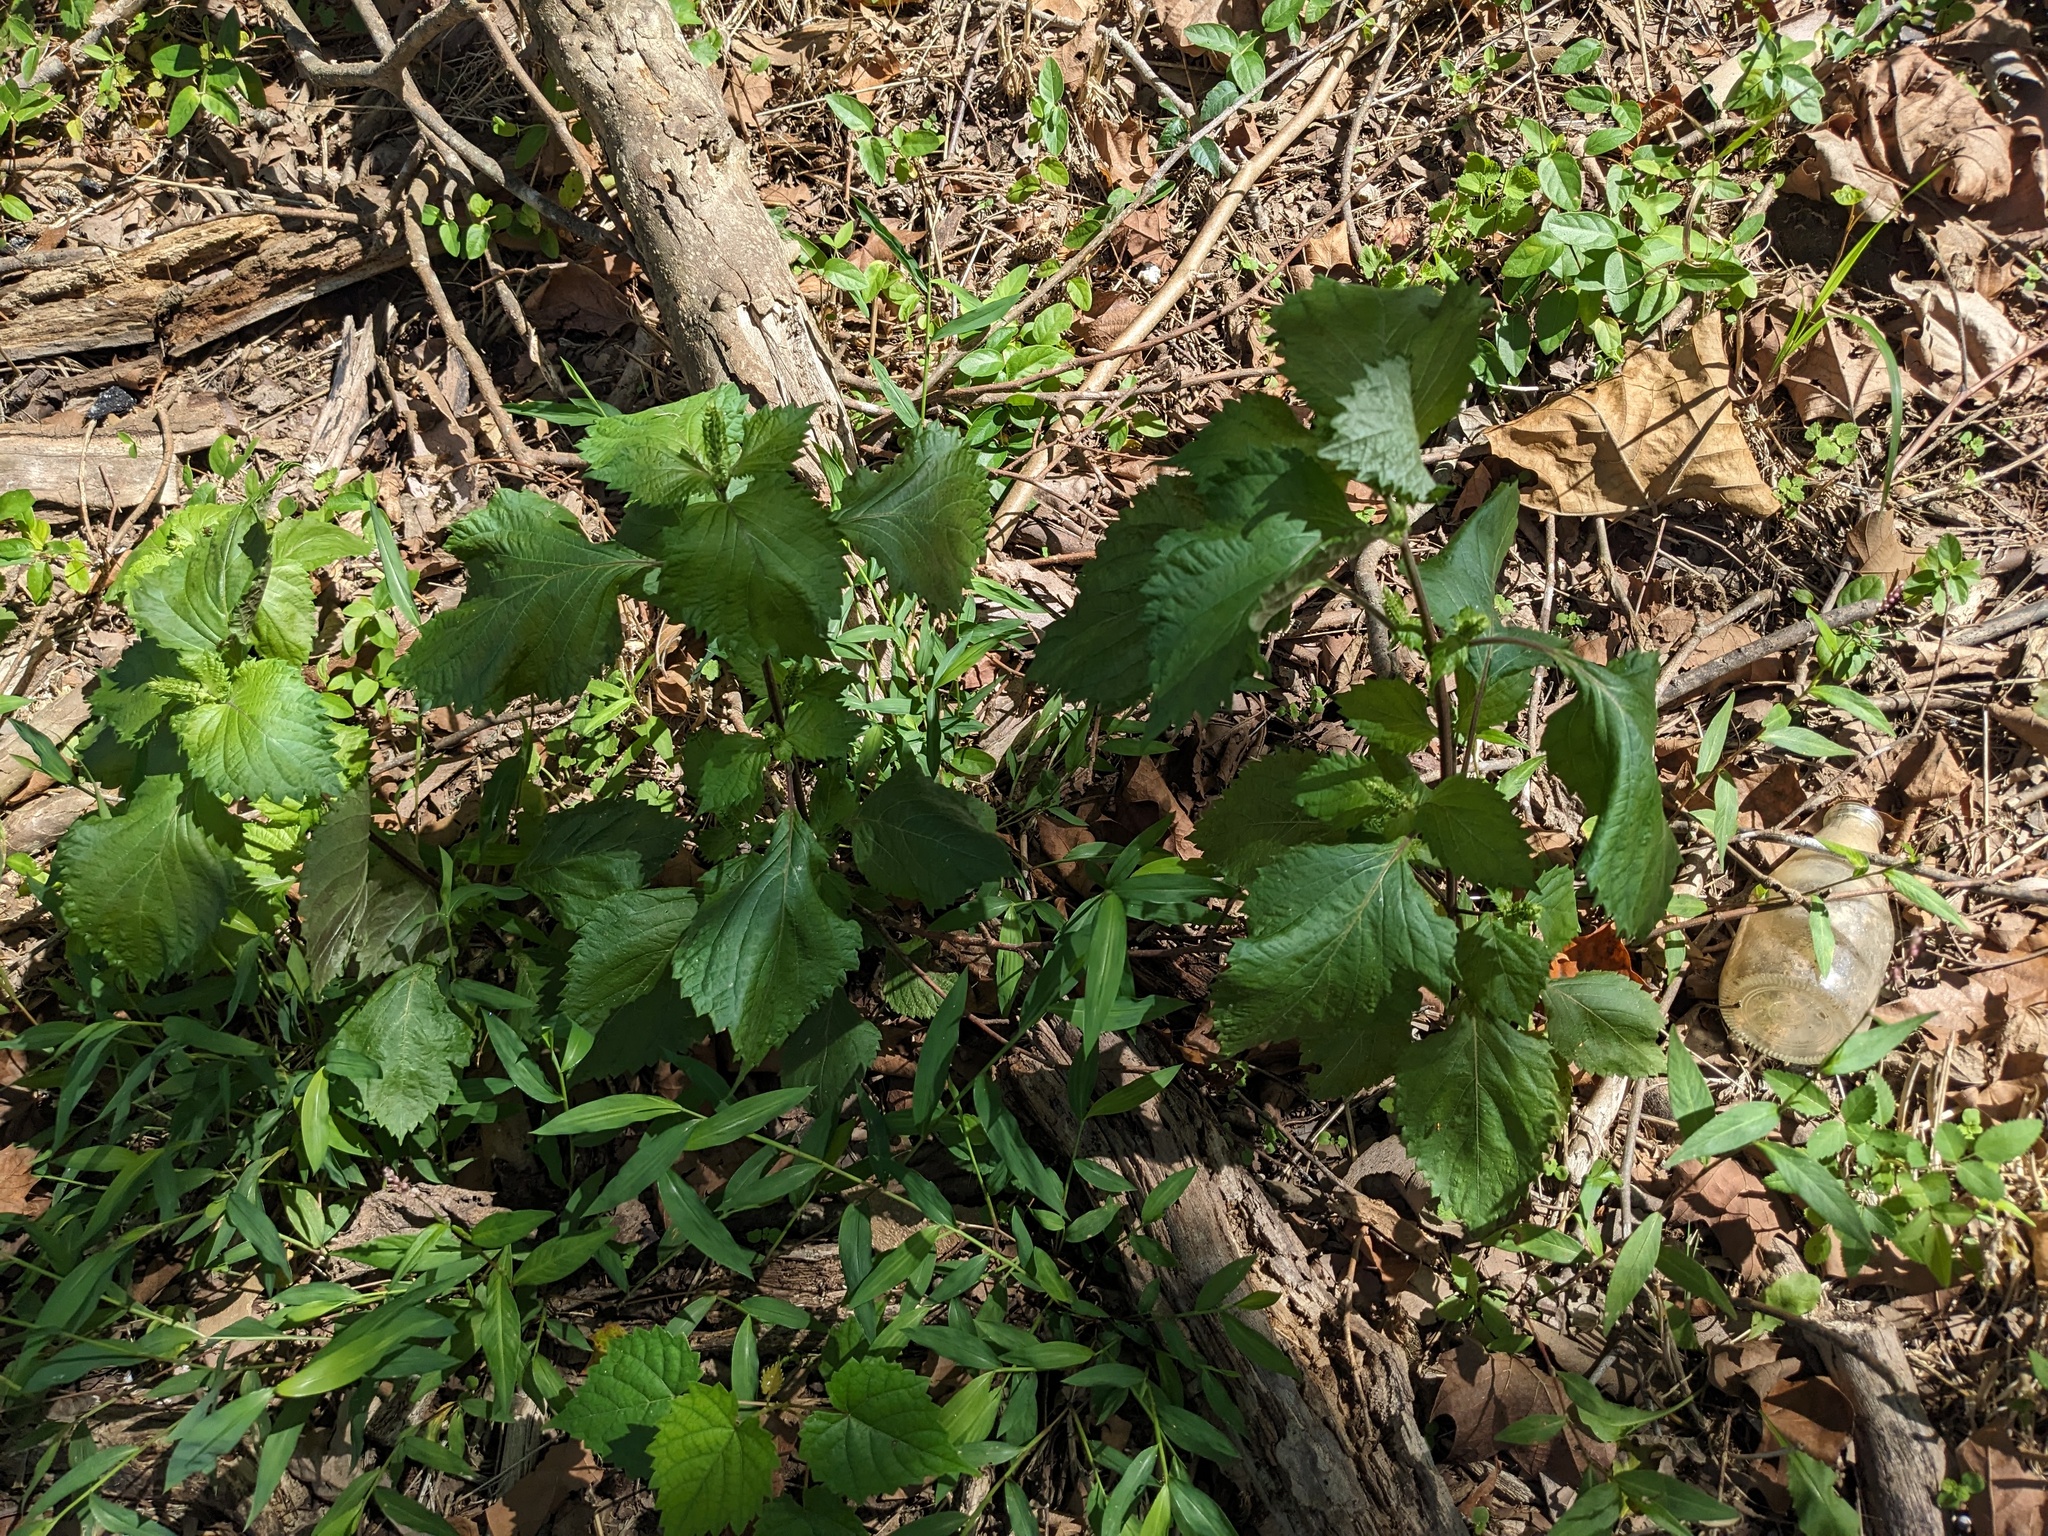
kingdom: Plantae
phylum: Tracheophyta
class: Magnoliopsida
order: Lamiales
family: Lamiaceae
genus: Perilla
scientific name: Perilla frutescens
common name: Perilla
